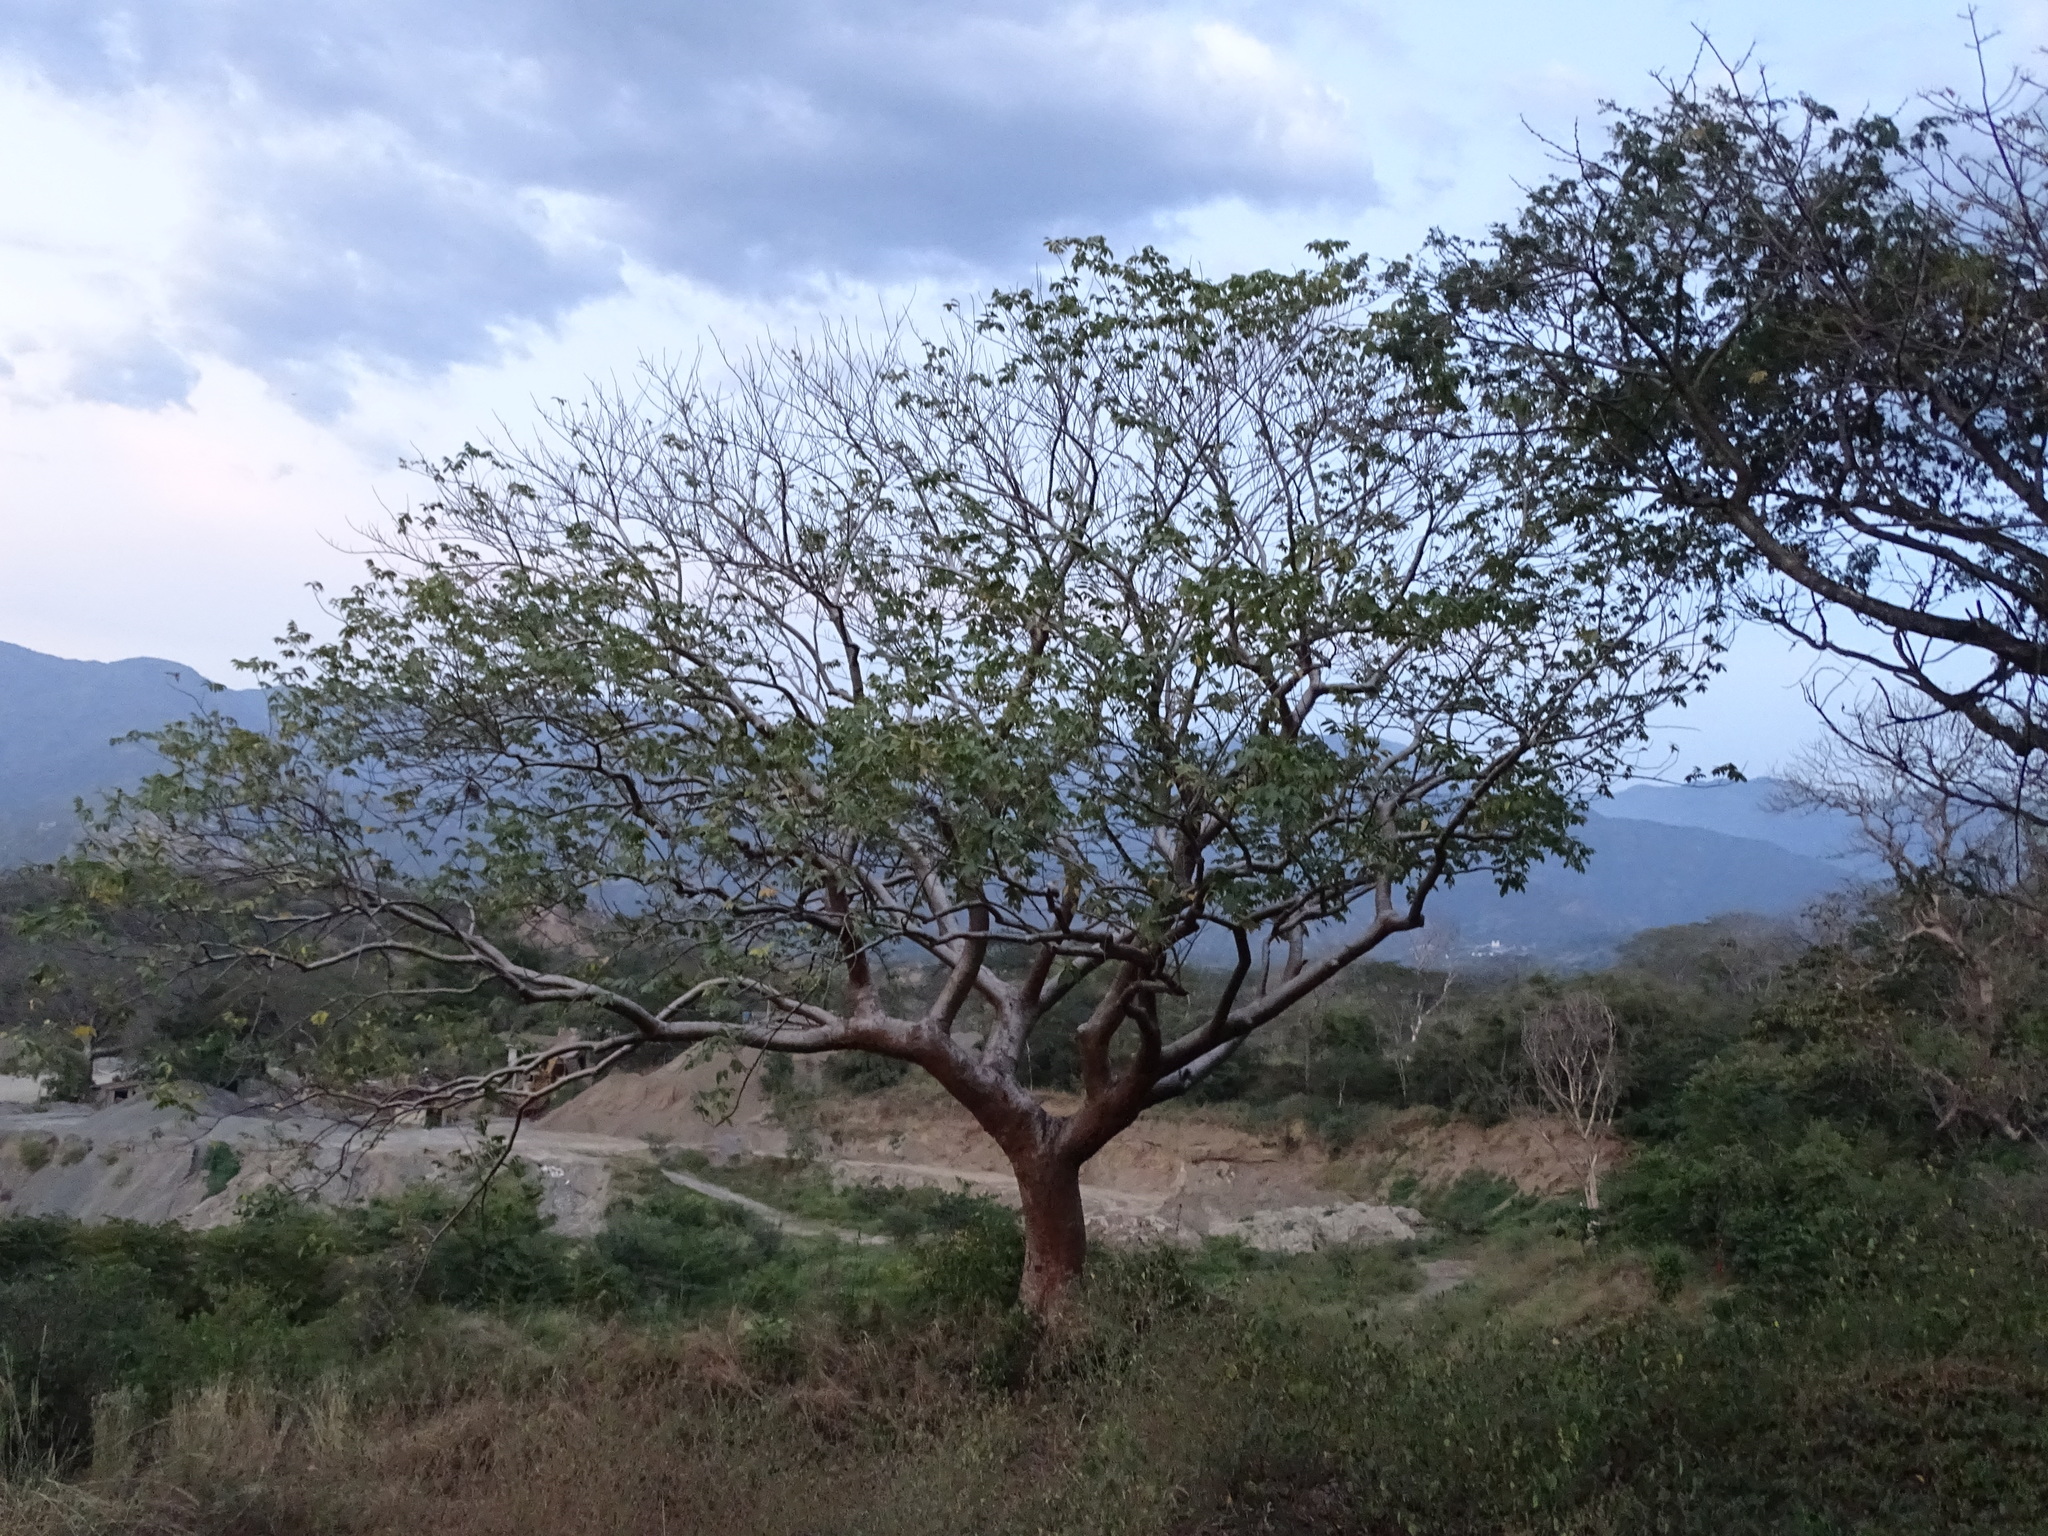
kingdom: Plantae
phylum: Tracheophyta
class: Magnoliopsida
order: Sapindales
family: Burseraceae
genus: Bursera
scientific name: Bursera simaruba
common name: Turpentine tree
